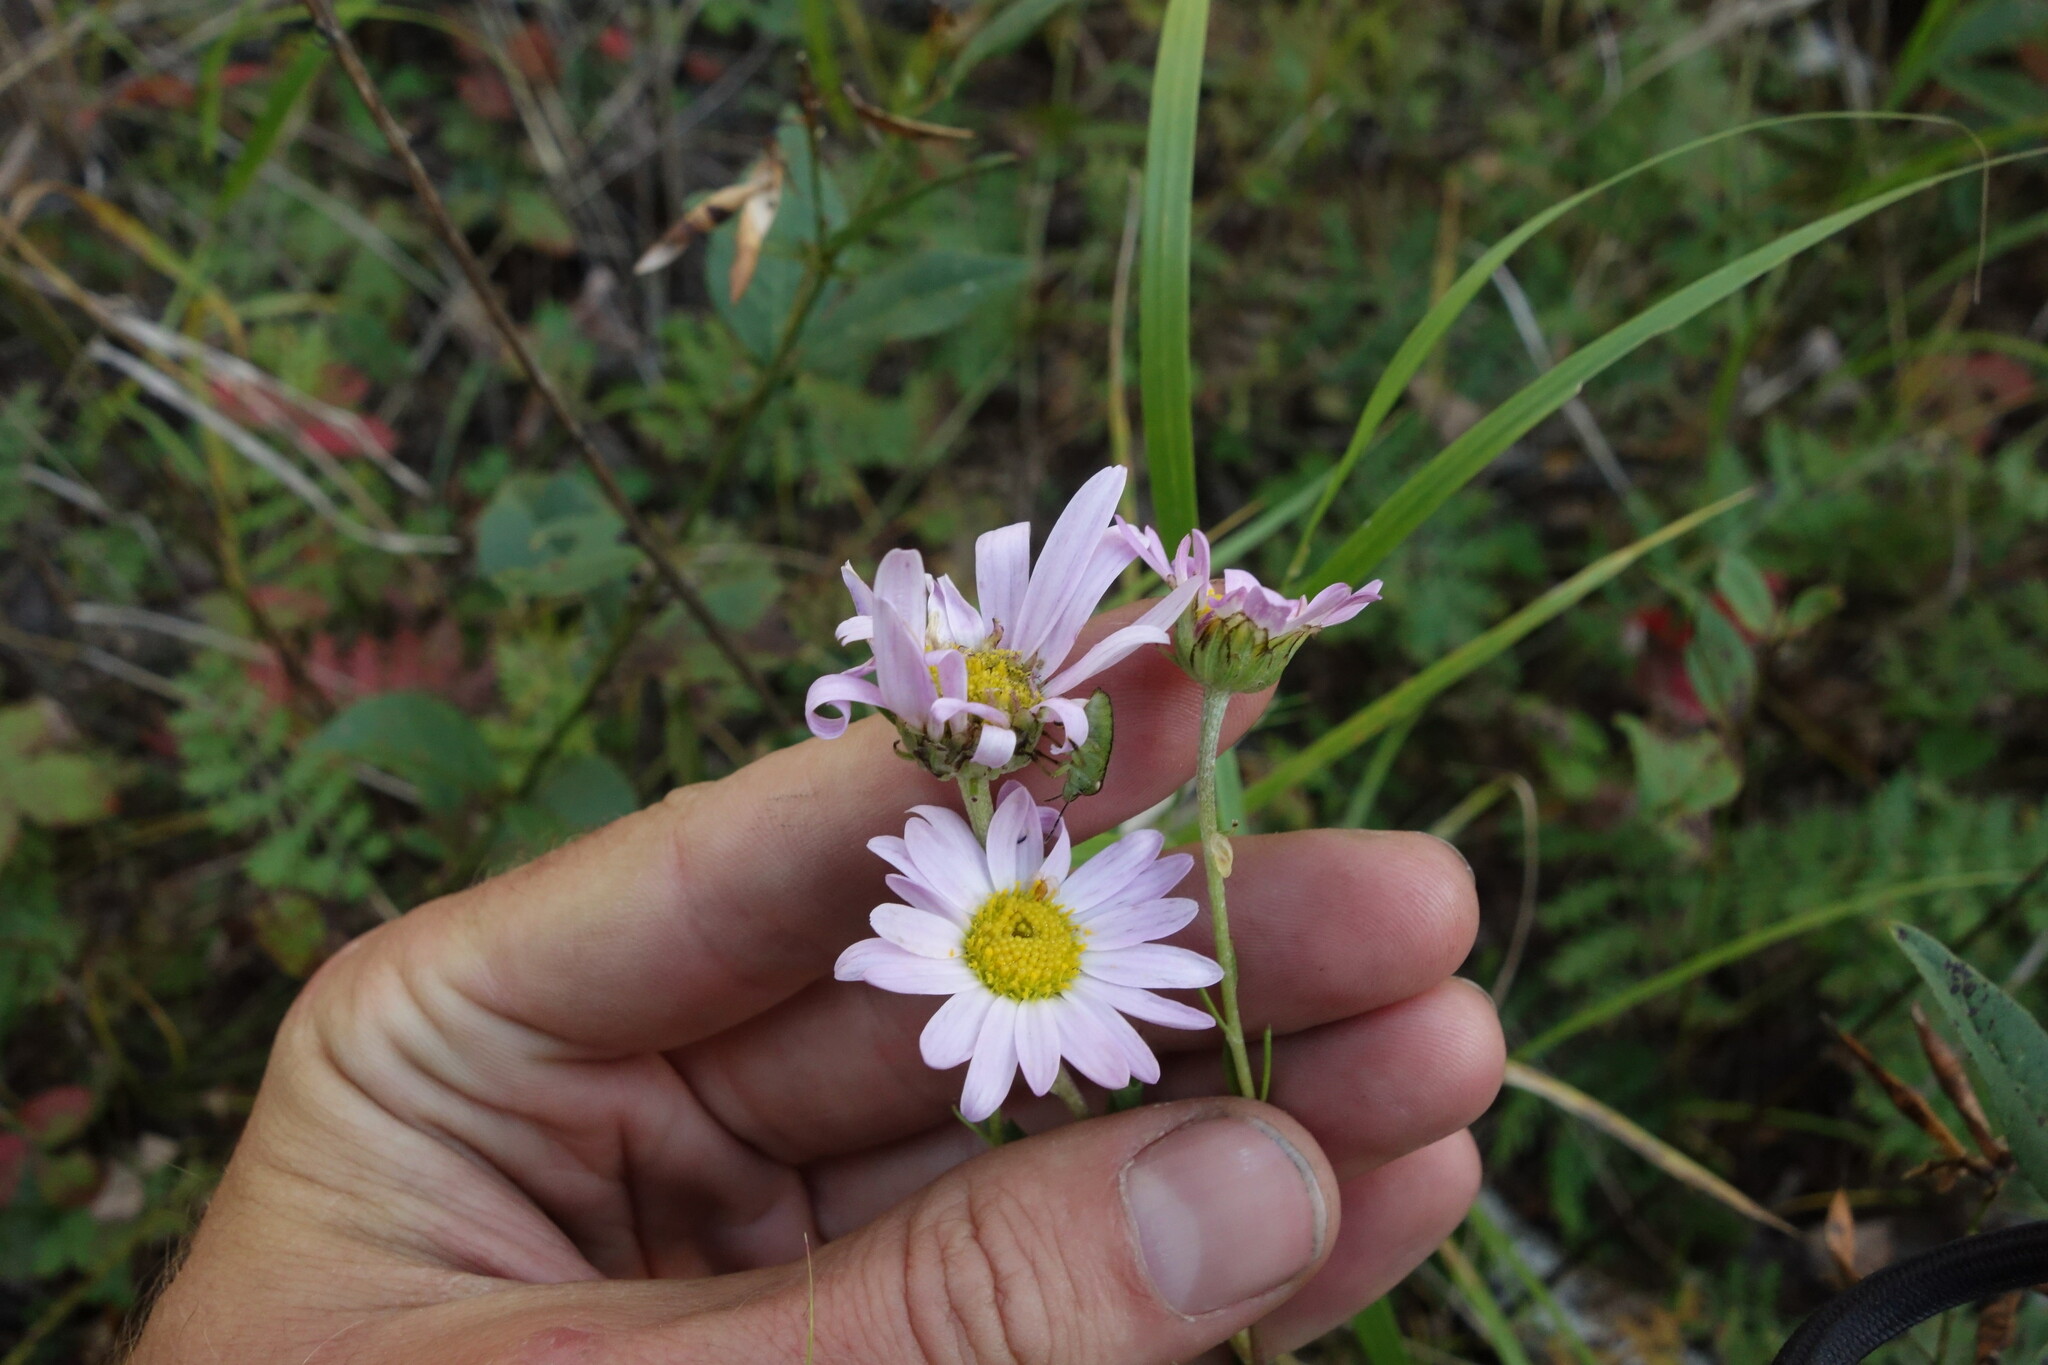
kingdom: Plantae
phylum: Tracheophyta
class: Magnoliopsida
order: Asterales
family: Asteraceae
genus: Chrysanthemum
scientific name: Chrysanthemum zawadzkii
